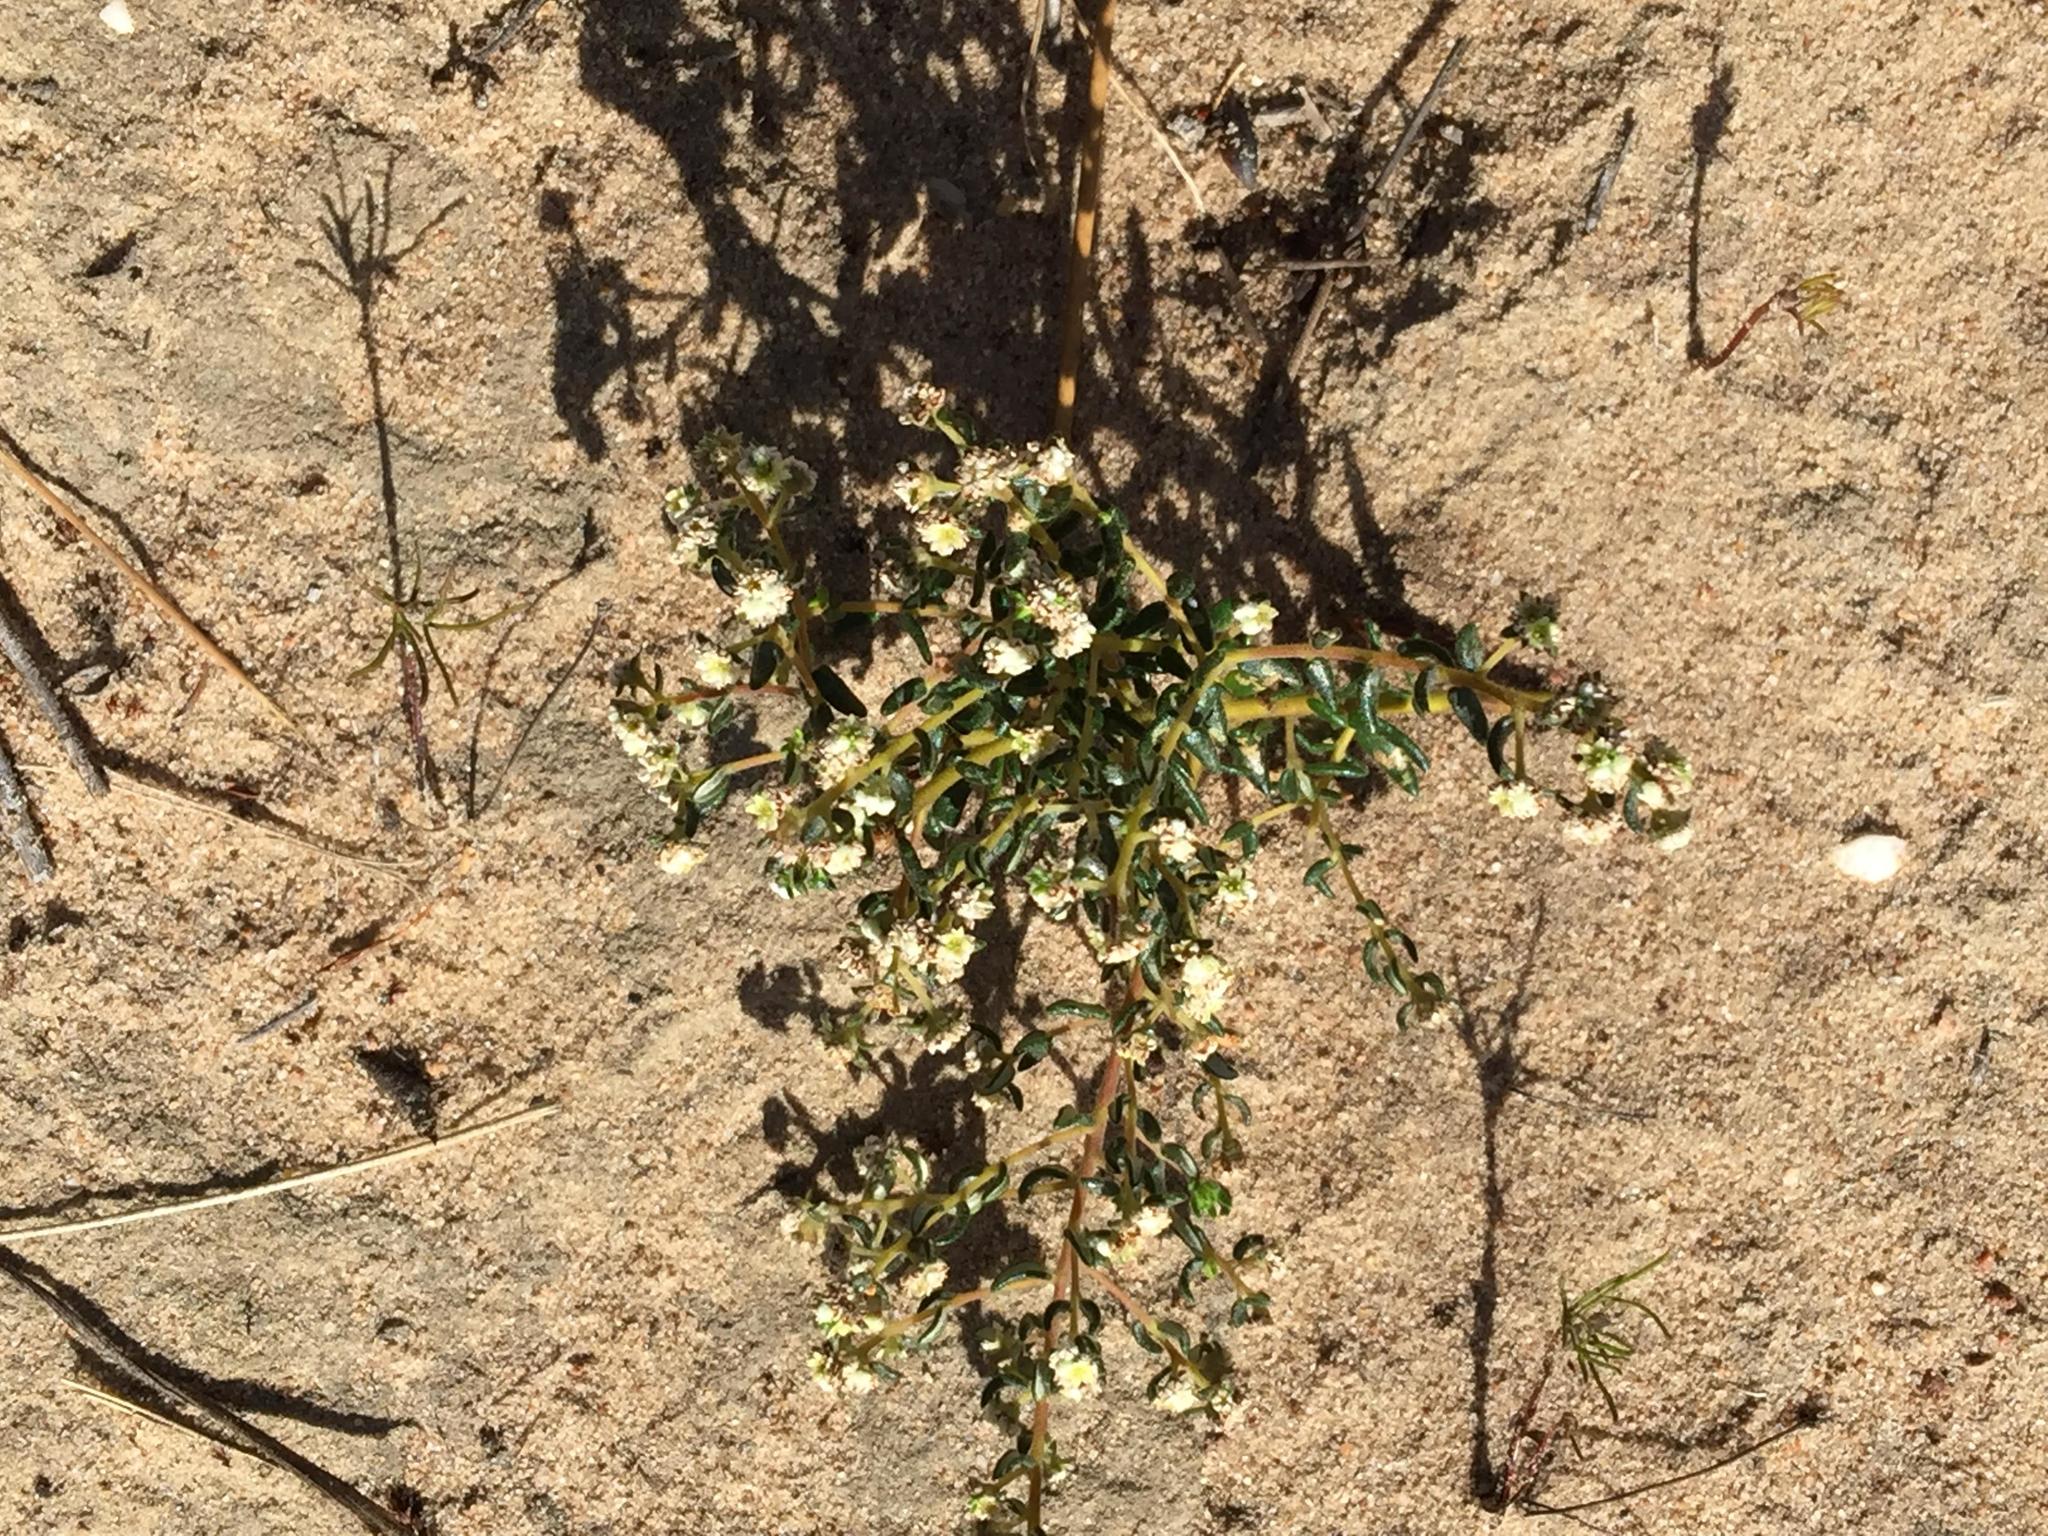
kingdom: Plantae
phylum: Tracheophyta
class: Magnoliopsida
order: Rosales
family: Rhamnaceae
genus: Phylica
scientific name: Phylica parviflora
